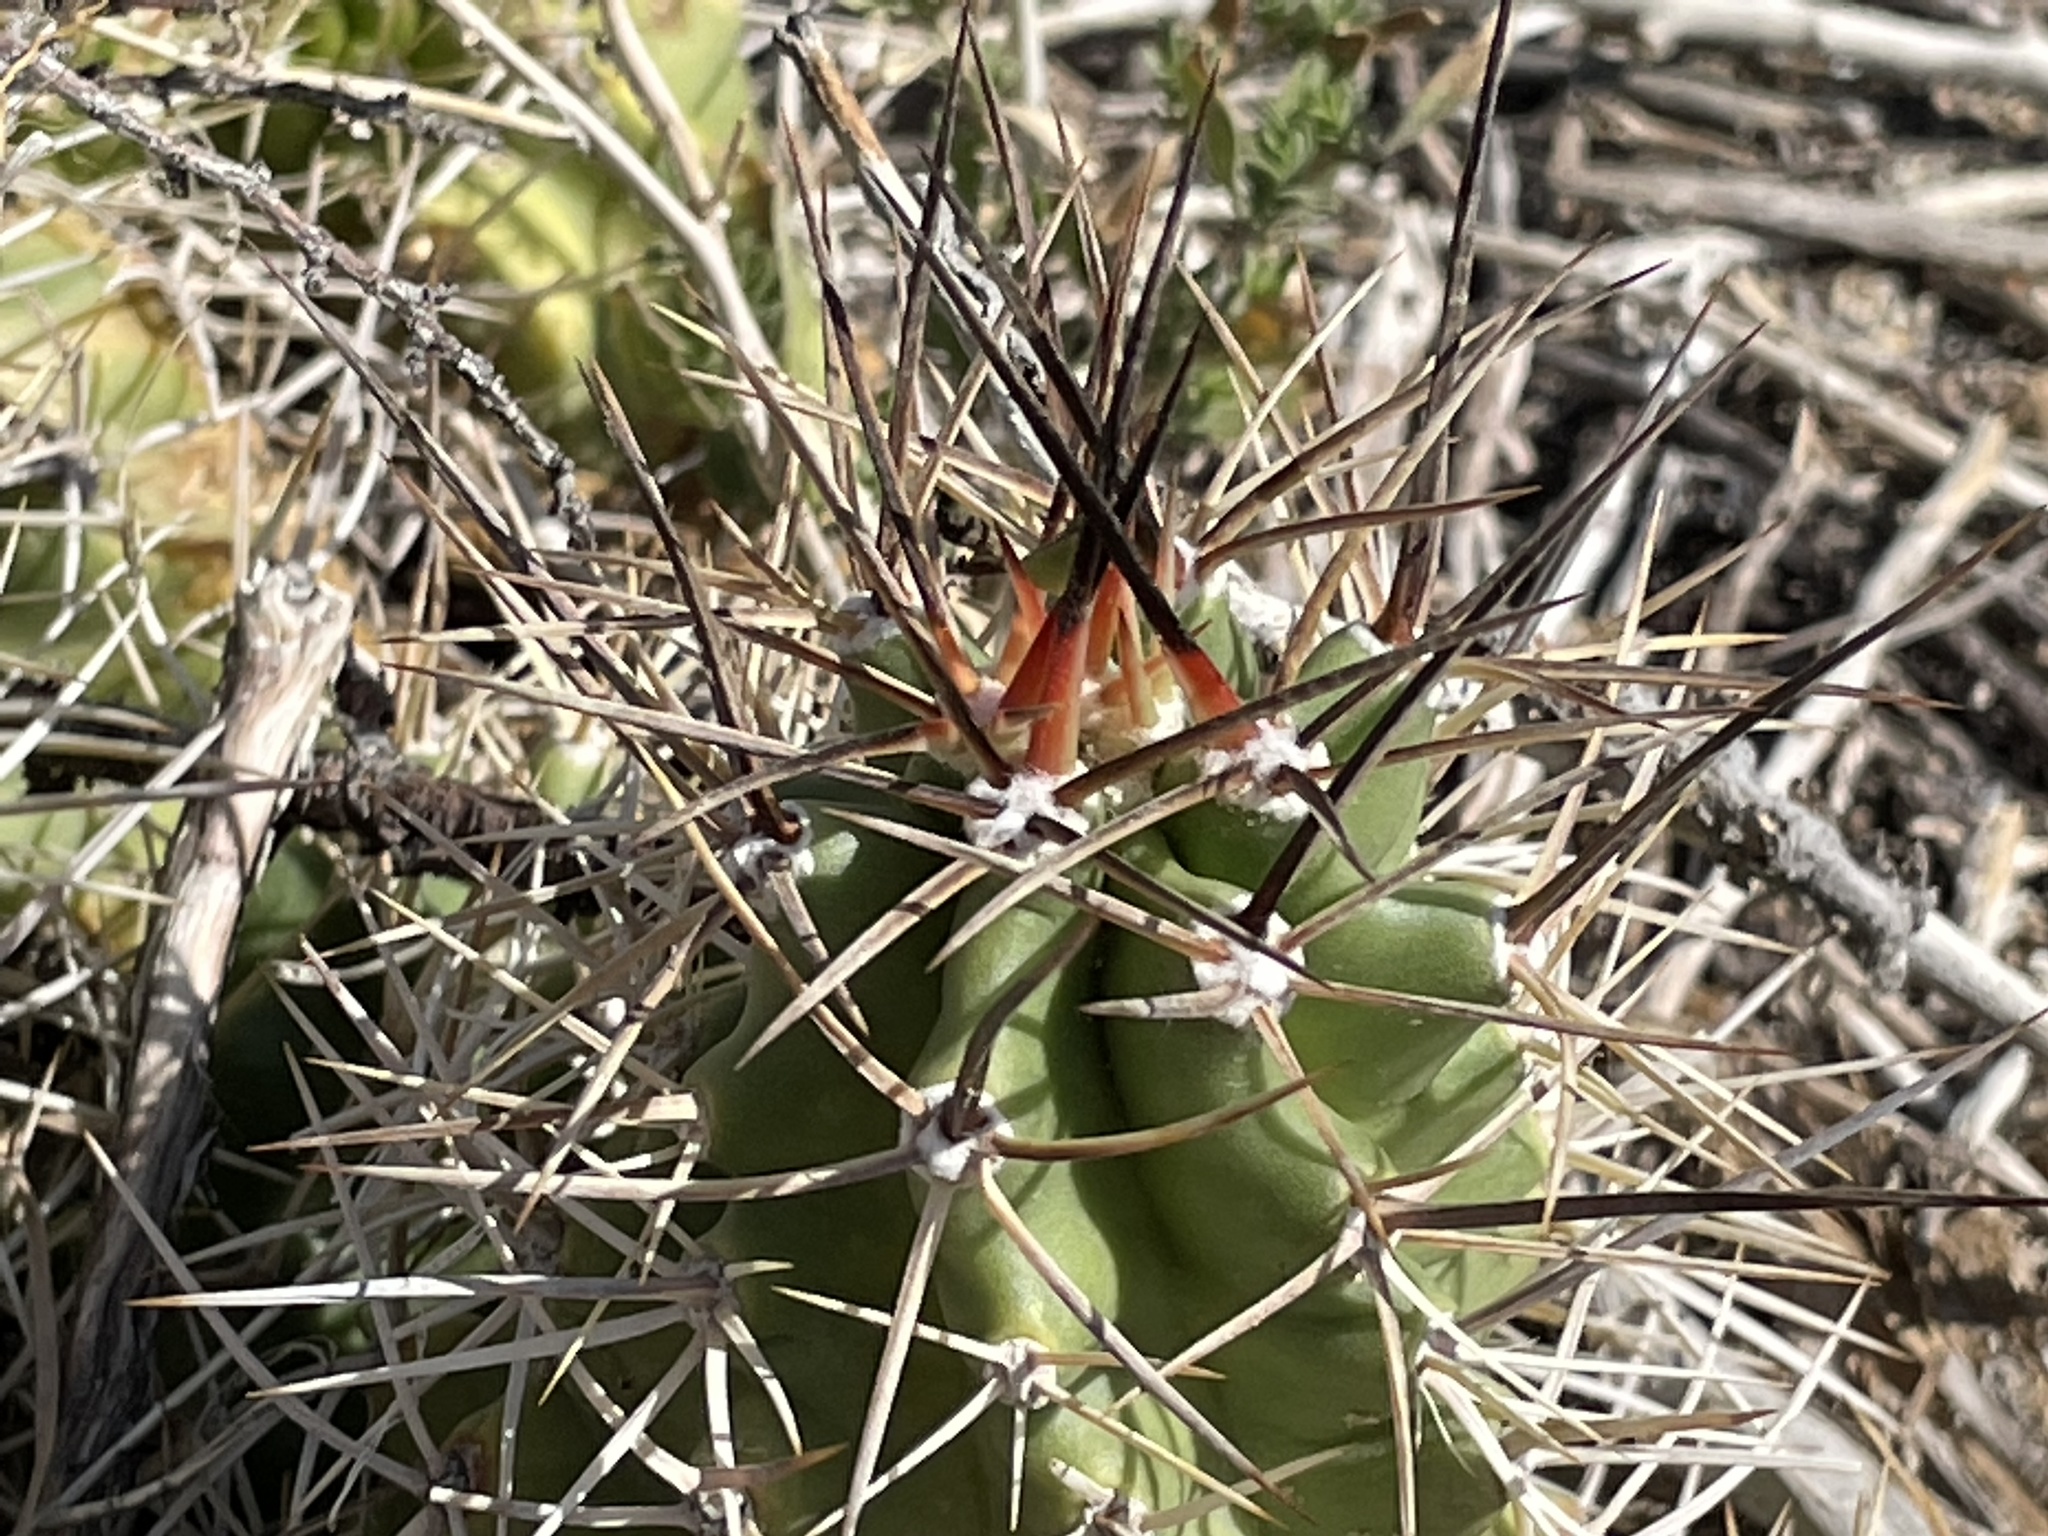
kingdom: Plantae
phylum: Tracheophyta
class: Magnoliopsida
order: Caryophyllales
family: Cactaceae
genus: Echinocereus
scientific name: Echinocereus triglochidiatus
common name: Claretcup hedgehog
